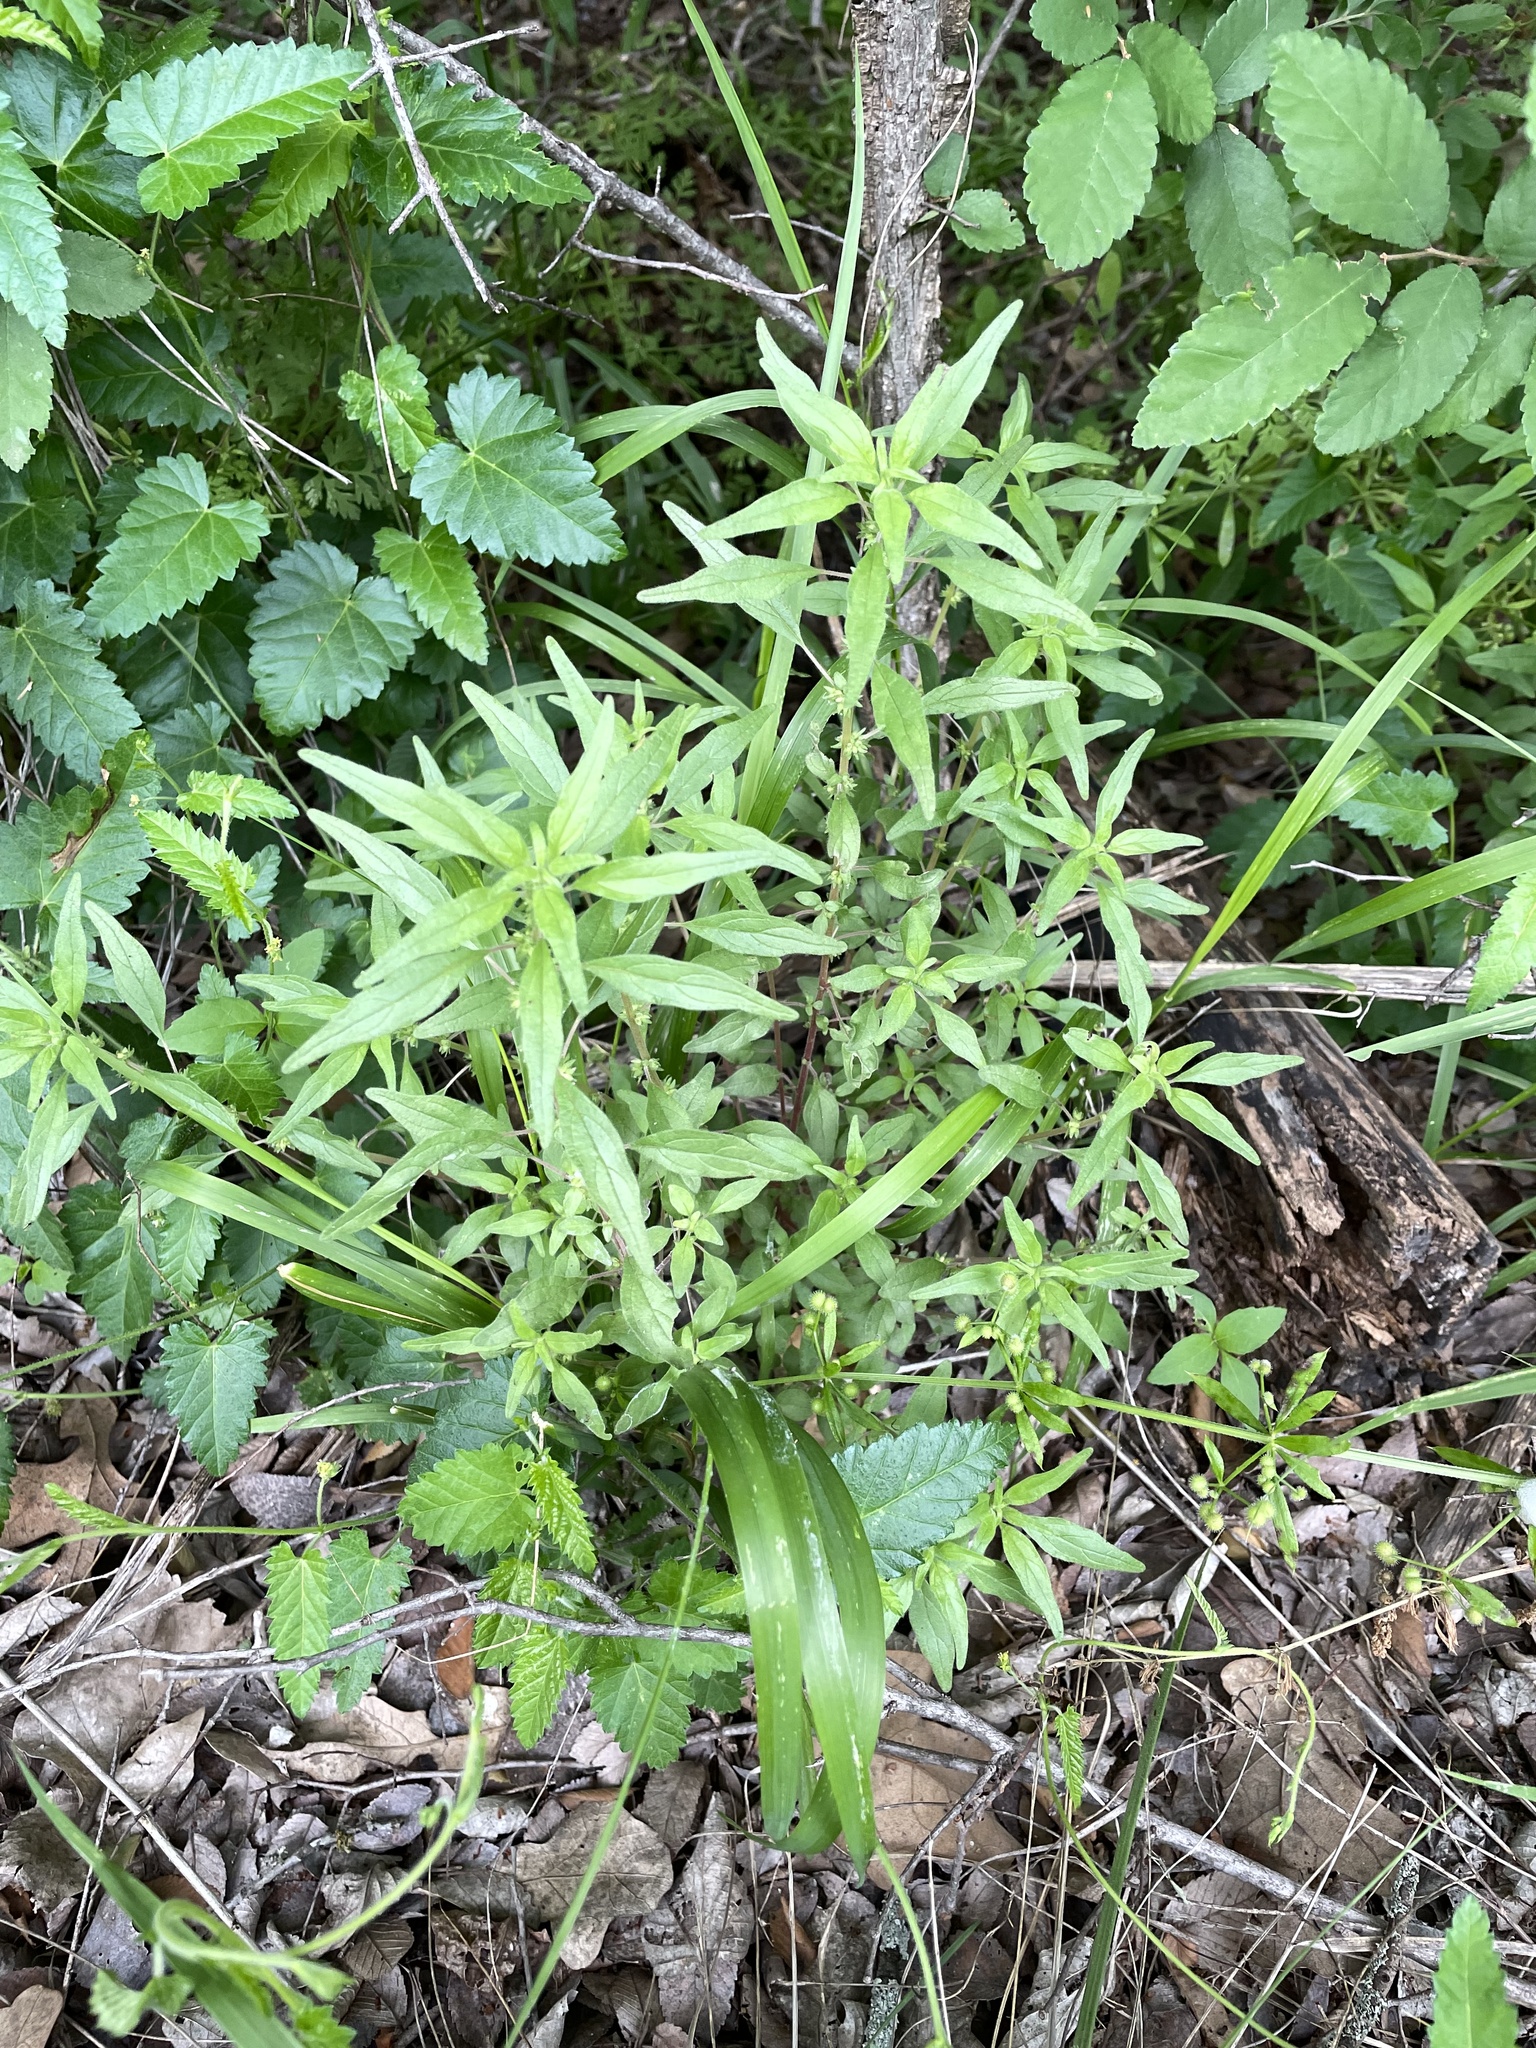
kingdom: Plantae
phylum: Tracheophyta
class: Magnoliopsida
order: Rosales
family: Urticaceae
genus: Parietaria
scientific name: Parietaria pensylvanica
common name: Pennsylvania pellitory
